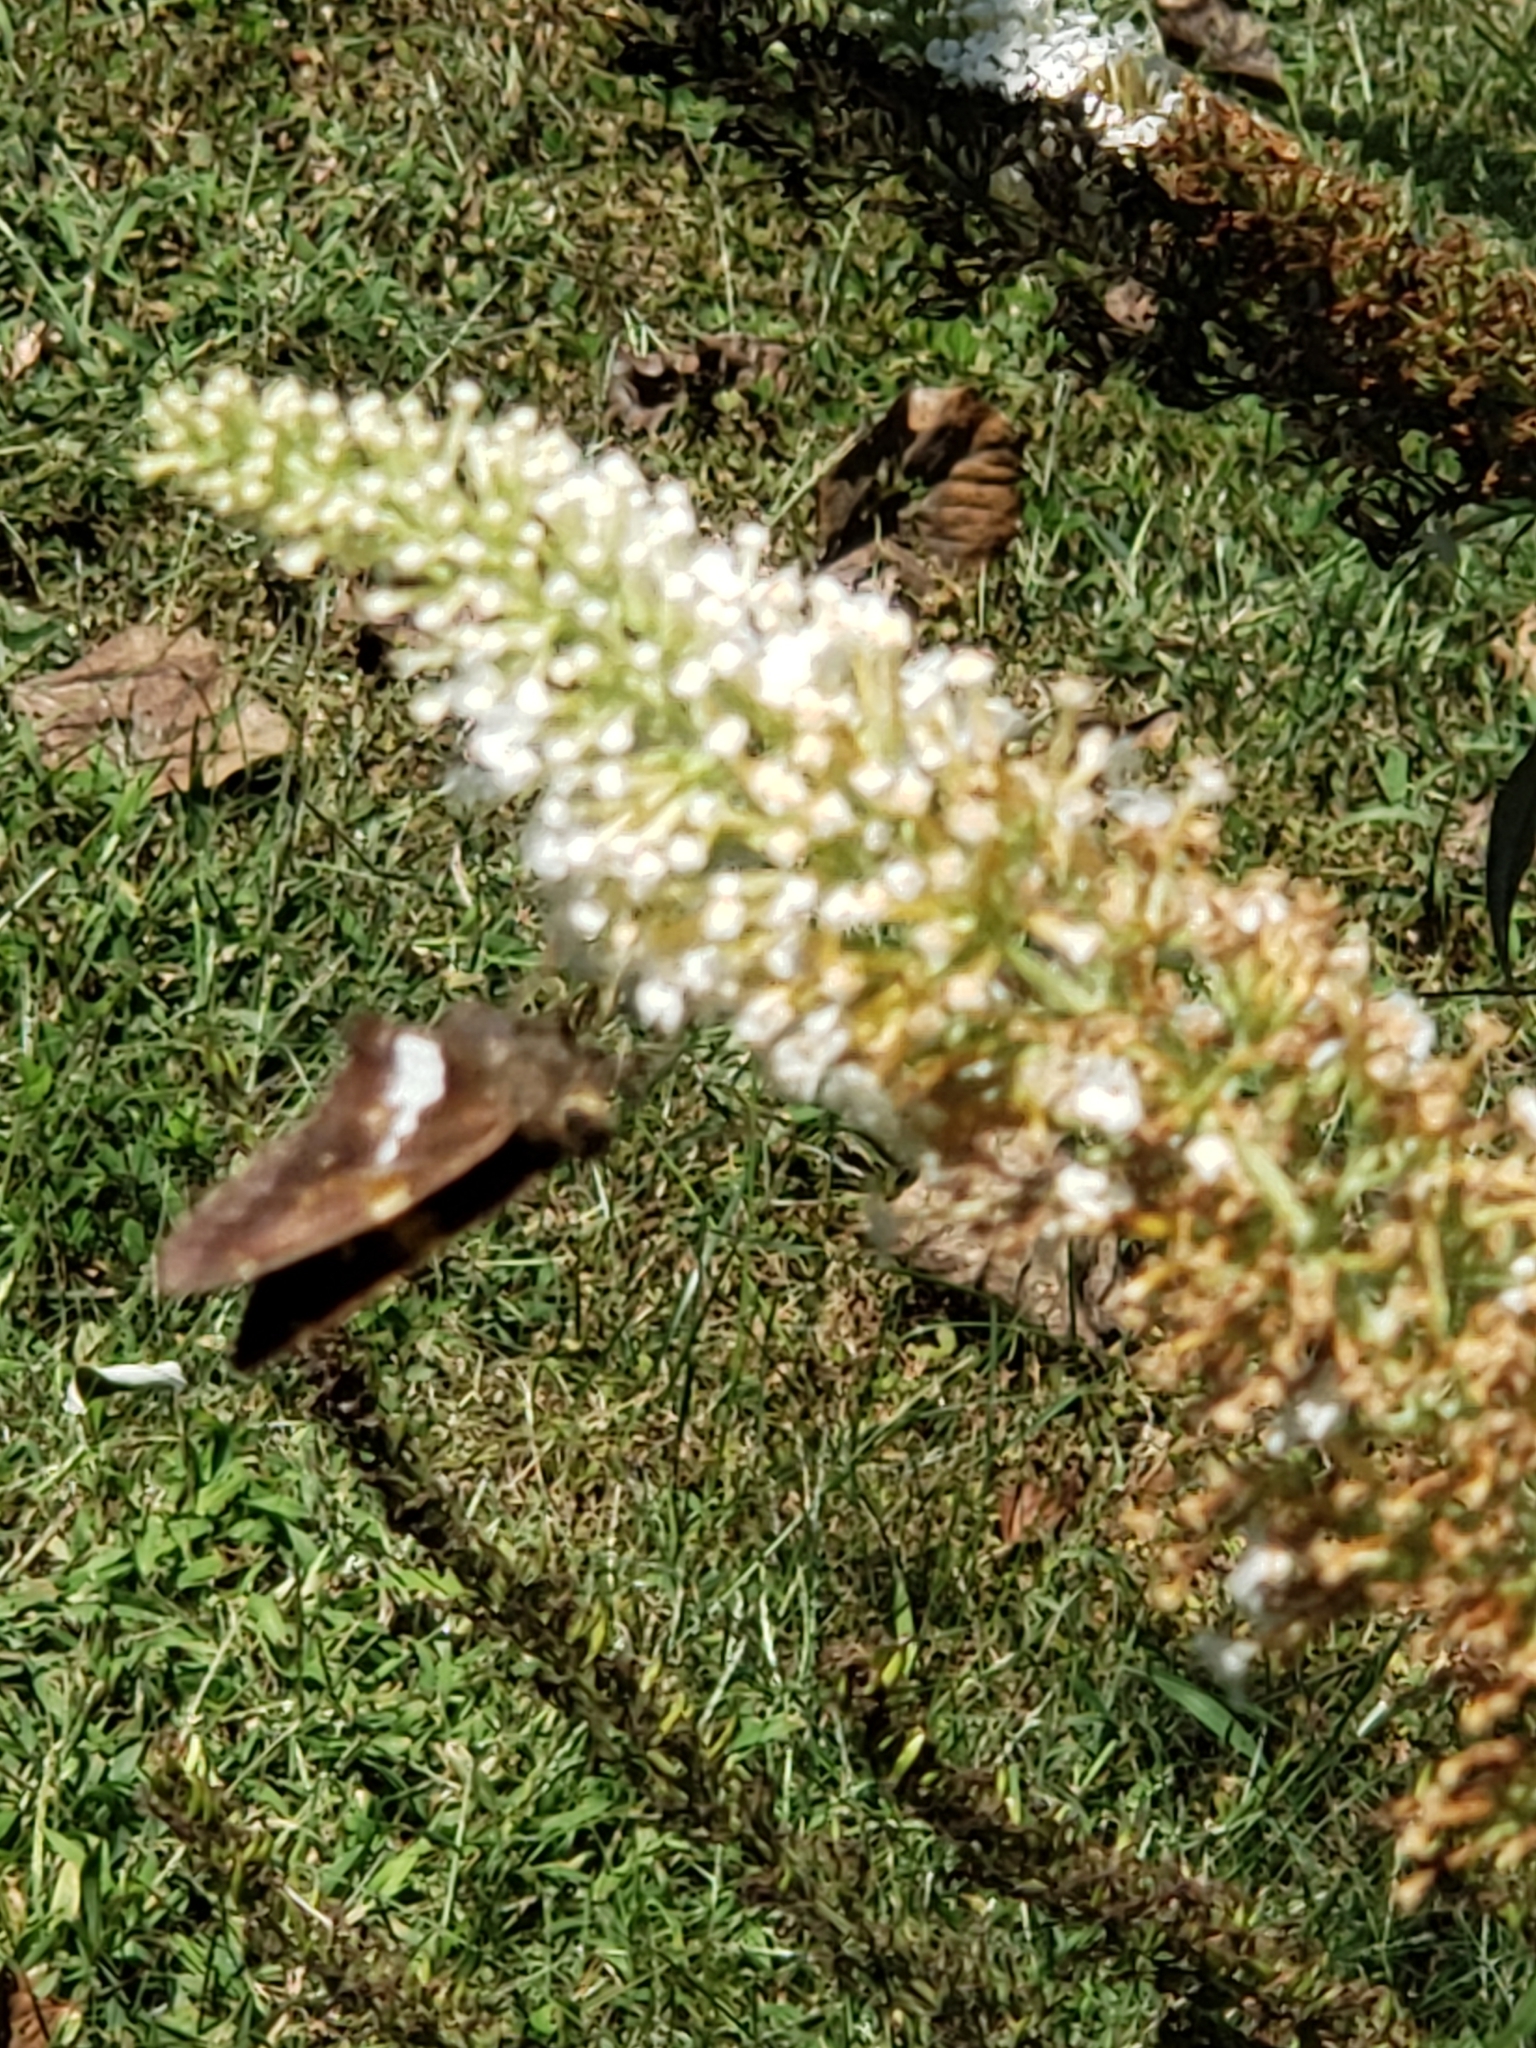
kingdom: Animalia
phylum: Arthropoda
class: Insecta
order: Lepidoptera
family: Hesperiidae
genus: Epargyreus
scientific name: Epargyreus clarus
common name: Silver-spotted skipper
